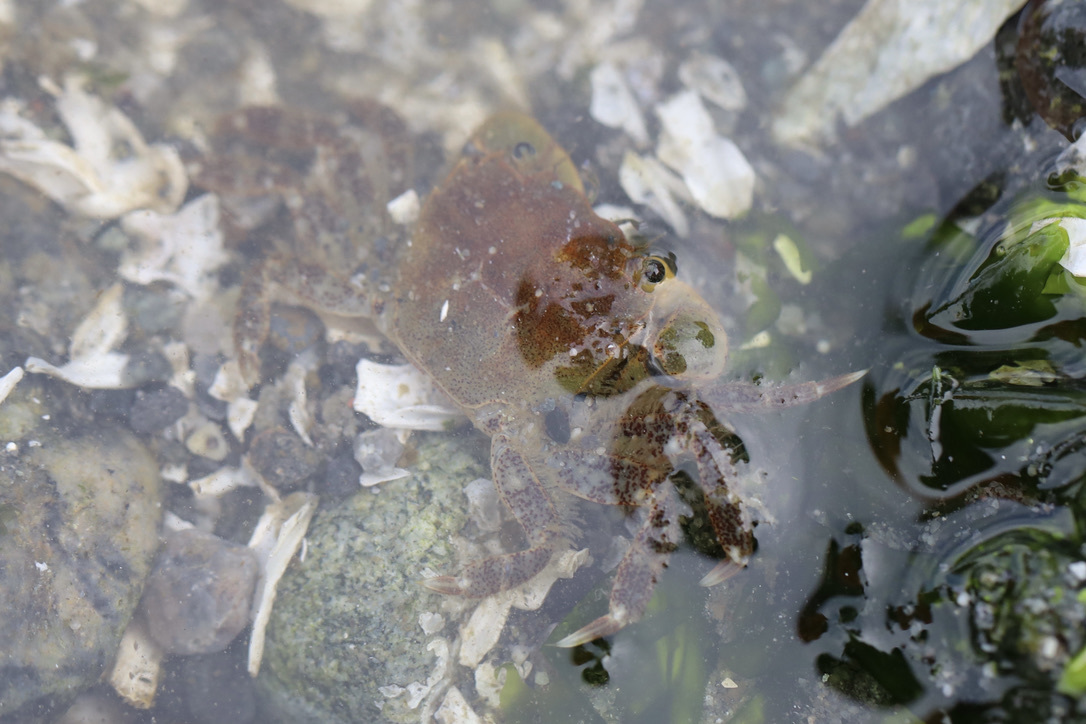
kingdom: Animalia
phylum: Arthropoda
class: Malacostraca
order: Decapoda
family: Varunidae
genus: Hemigrapsus
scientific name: Hemigrapsus oregonensis
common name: Yellow shore crab
